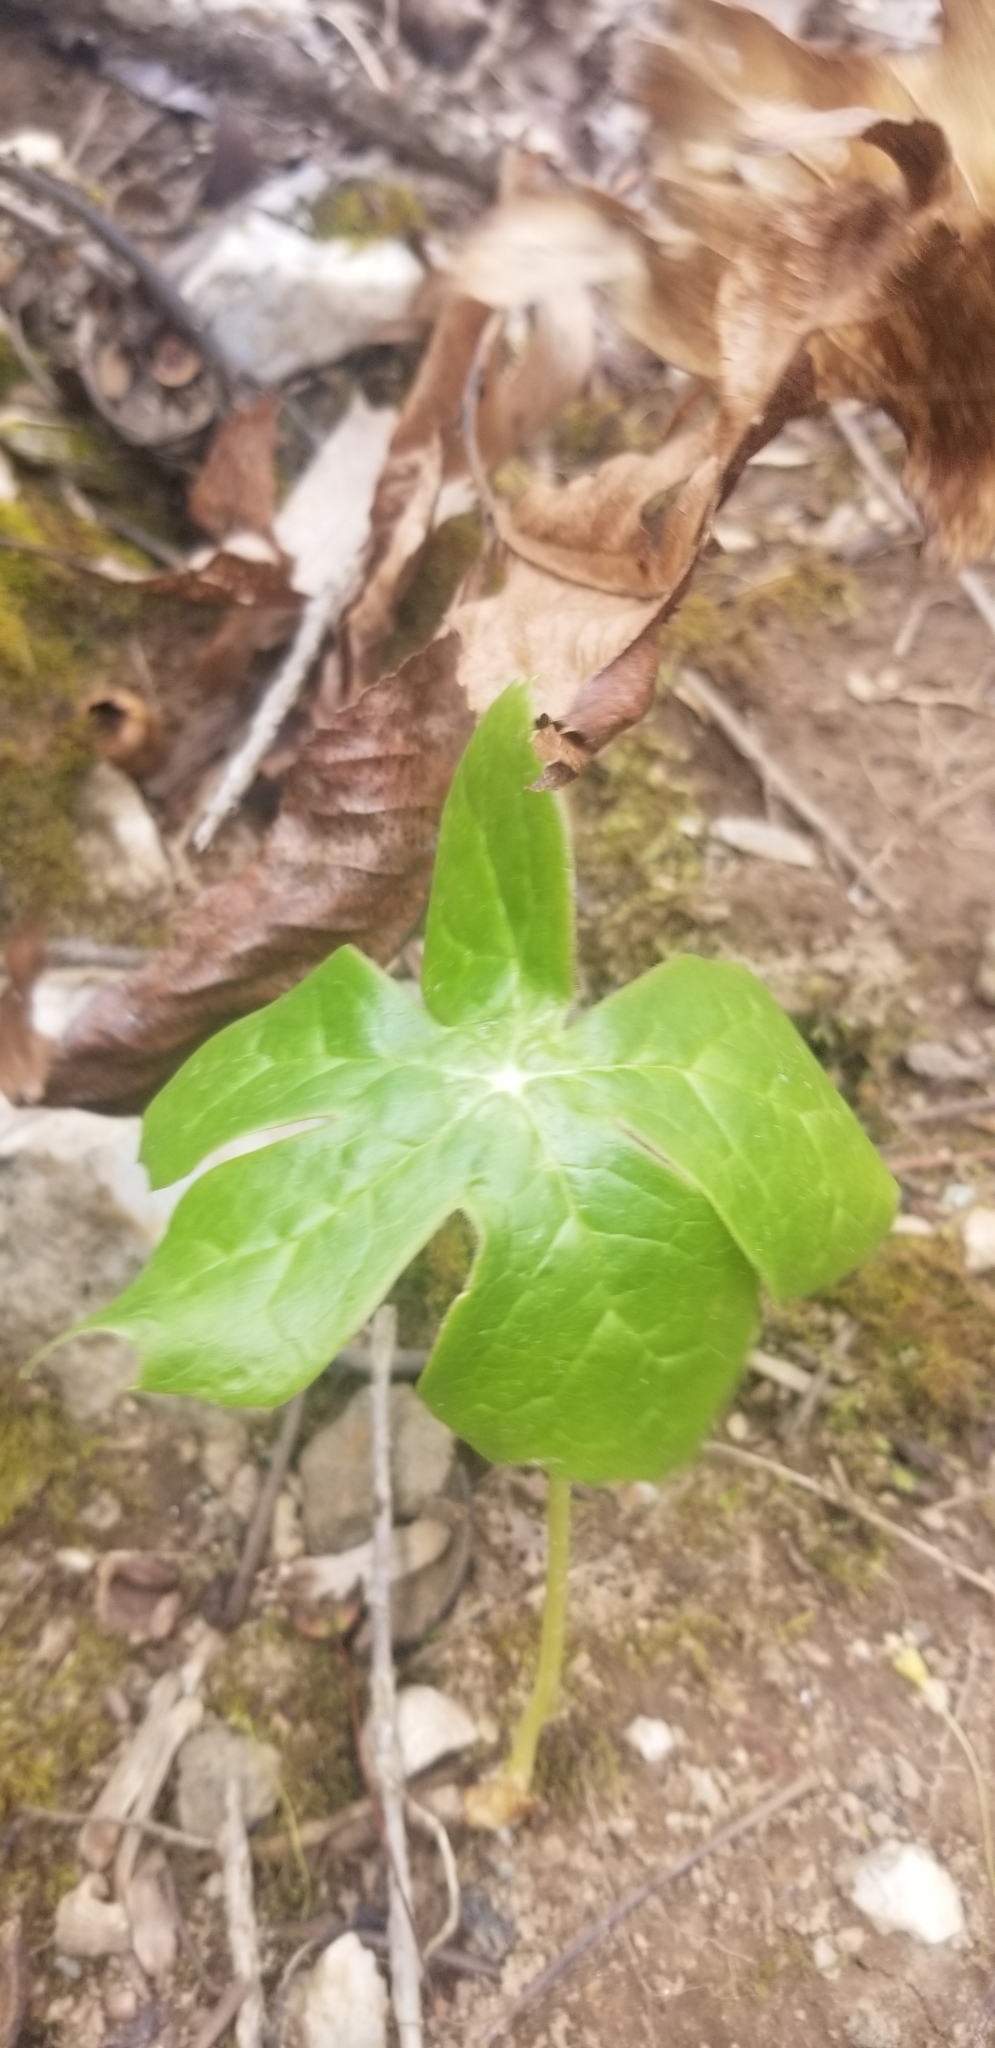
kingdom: Plantae
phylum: Tracheophyta
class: Magnoliopsida
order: Ranunculales
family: Berberidaceae
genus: Podophyllum
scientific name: Podophyllum peltatum
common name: Wild mandrake
